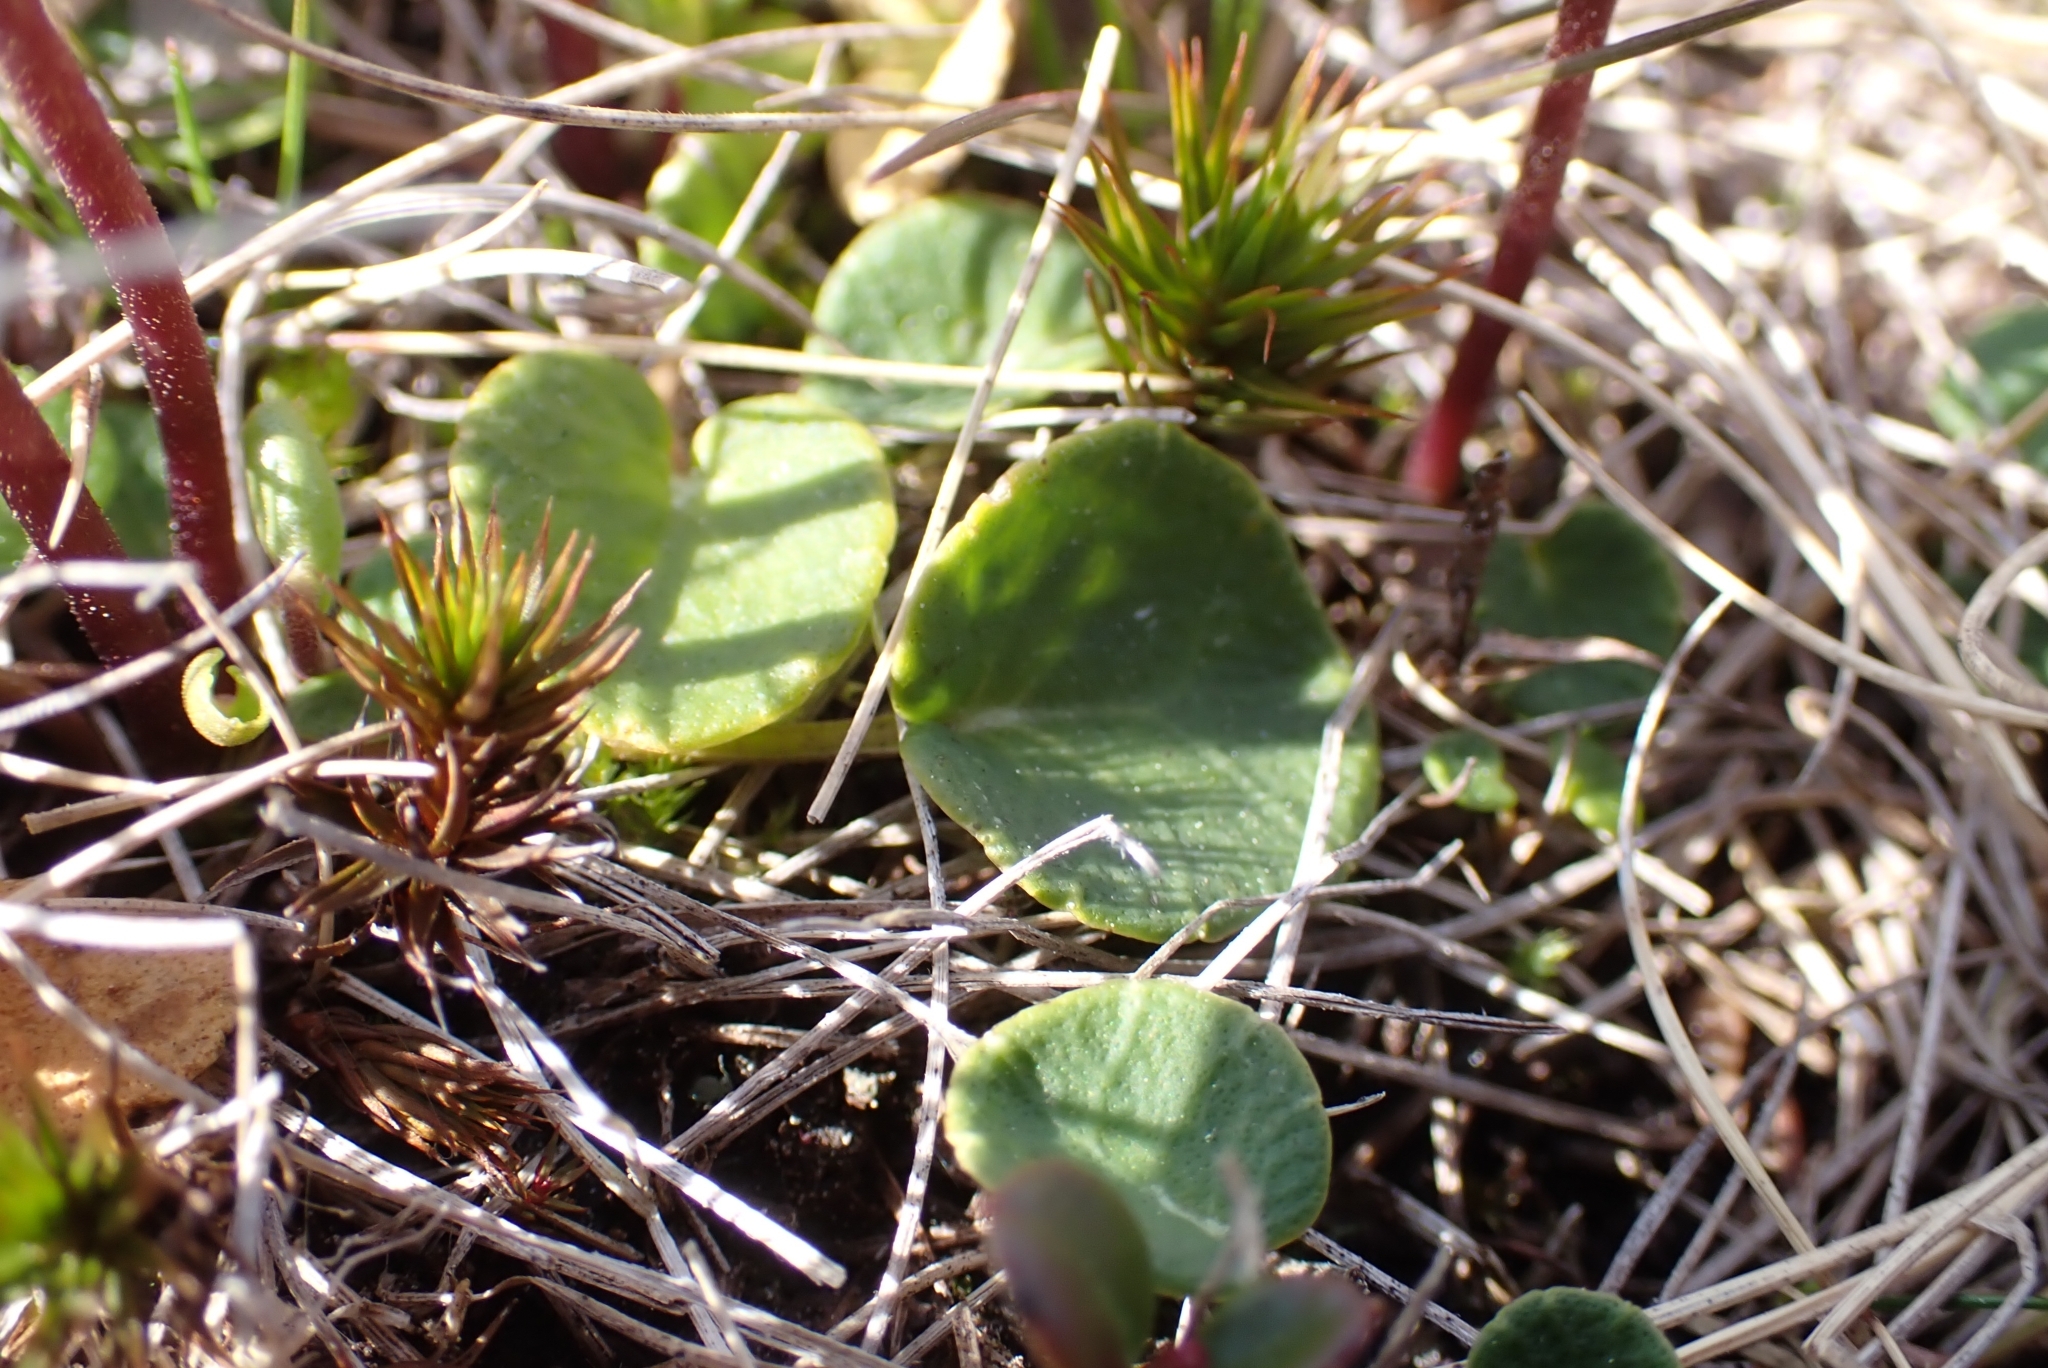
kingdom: Plantae
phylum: Tracheophyta
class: Magnoliopsida
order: Ericales
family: Primulaceae
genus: Soldanella
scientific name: Soldanella alpicola
